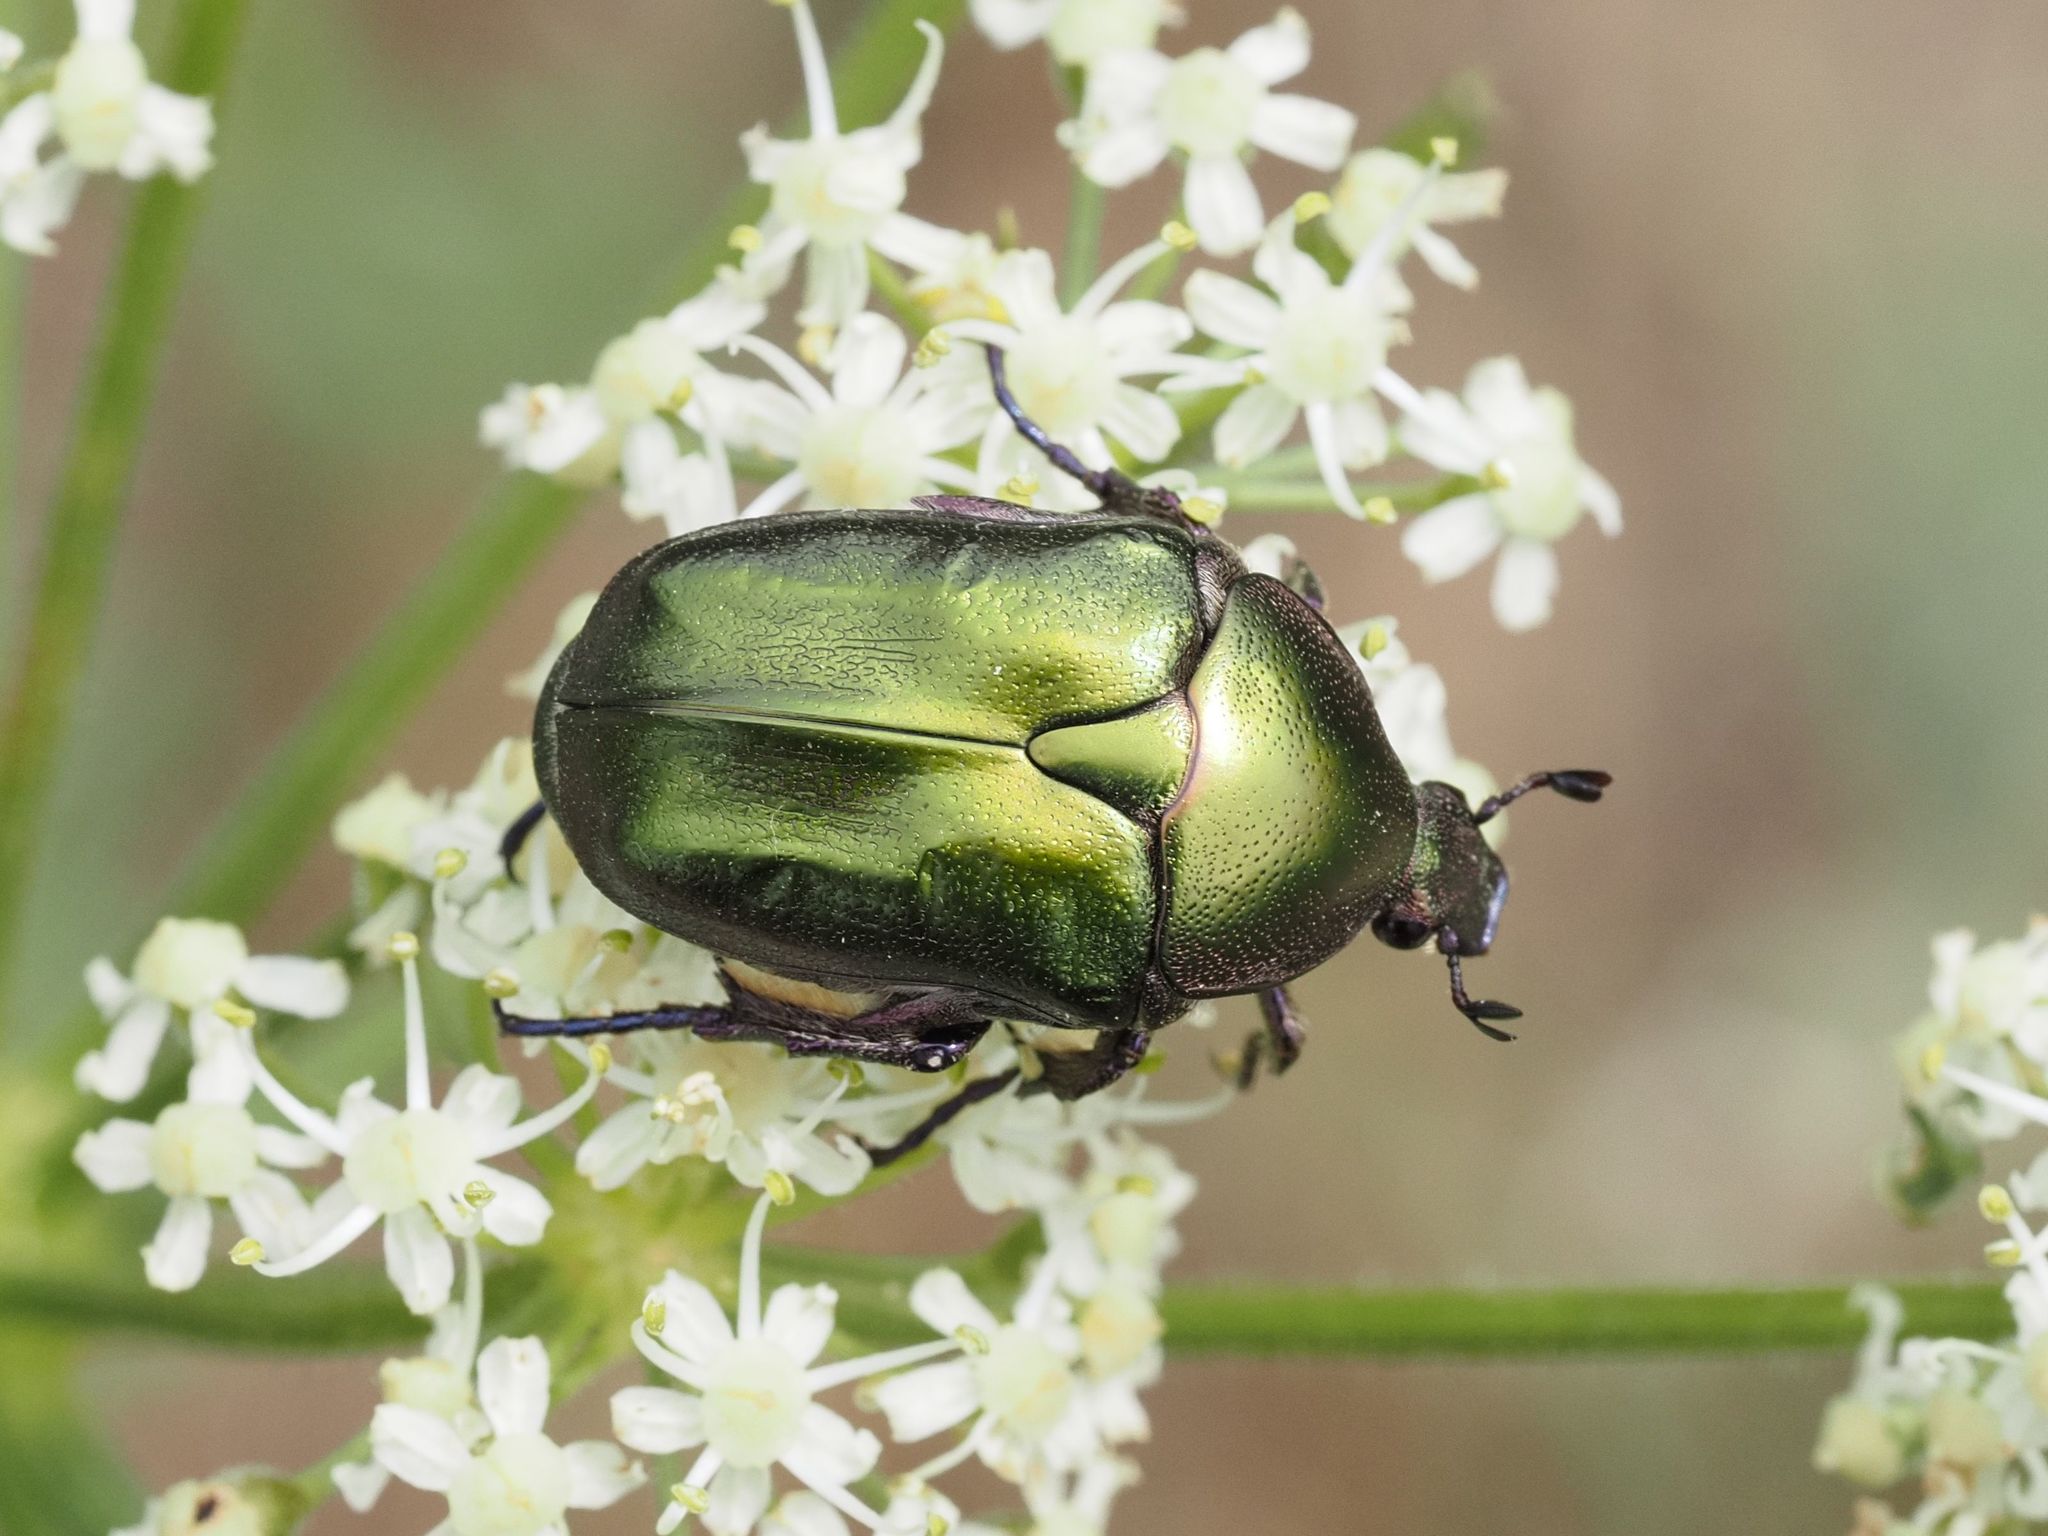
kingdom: Animalia
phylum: Arthropoda
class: Insecta
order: Coleoptera
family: Scarabaeidae
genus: Protaetia
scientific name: Protaetia cuprea
